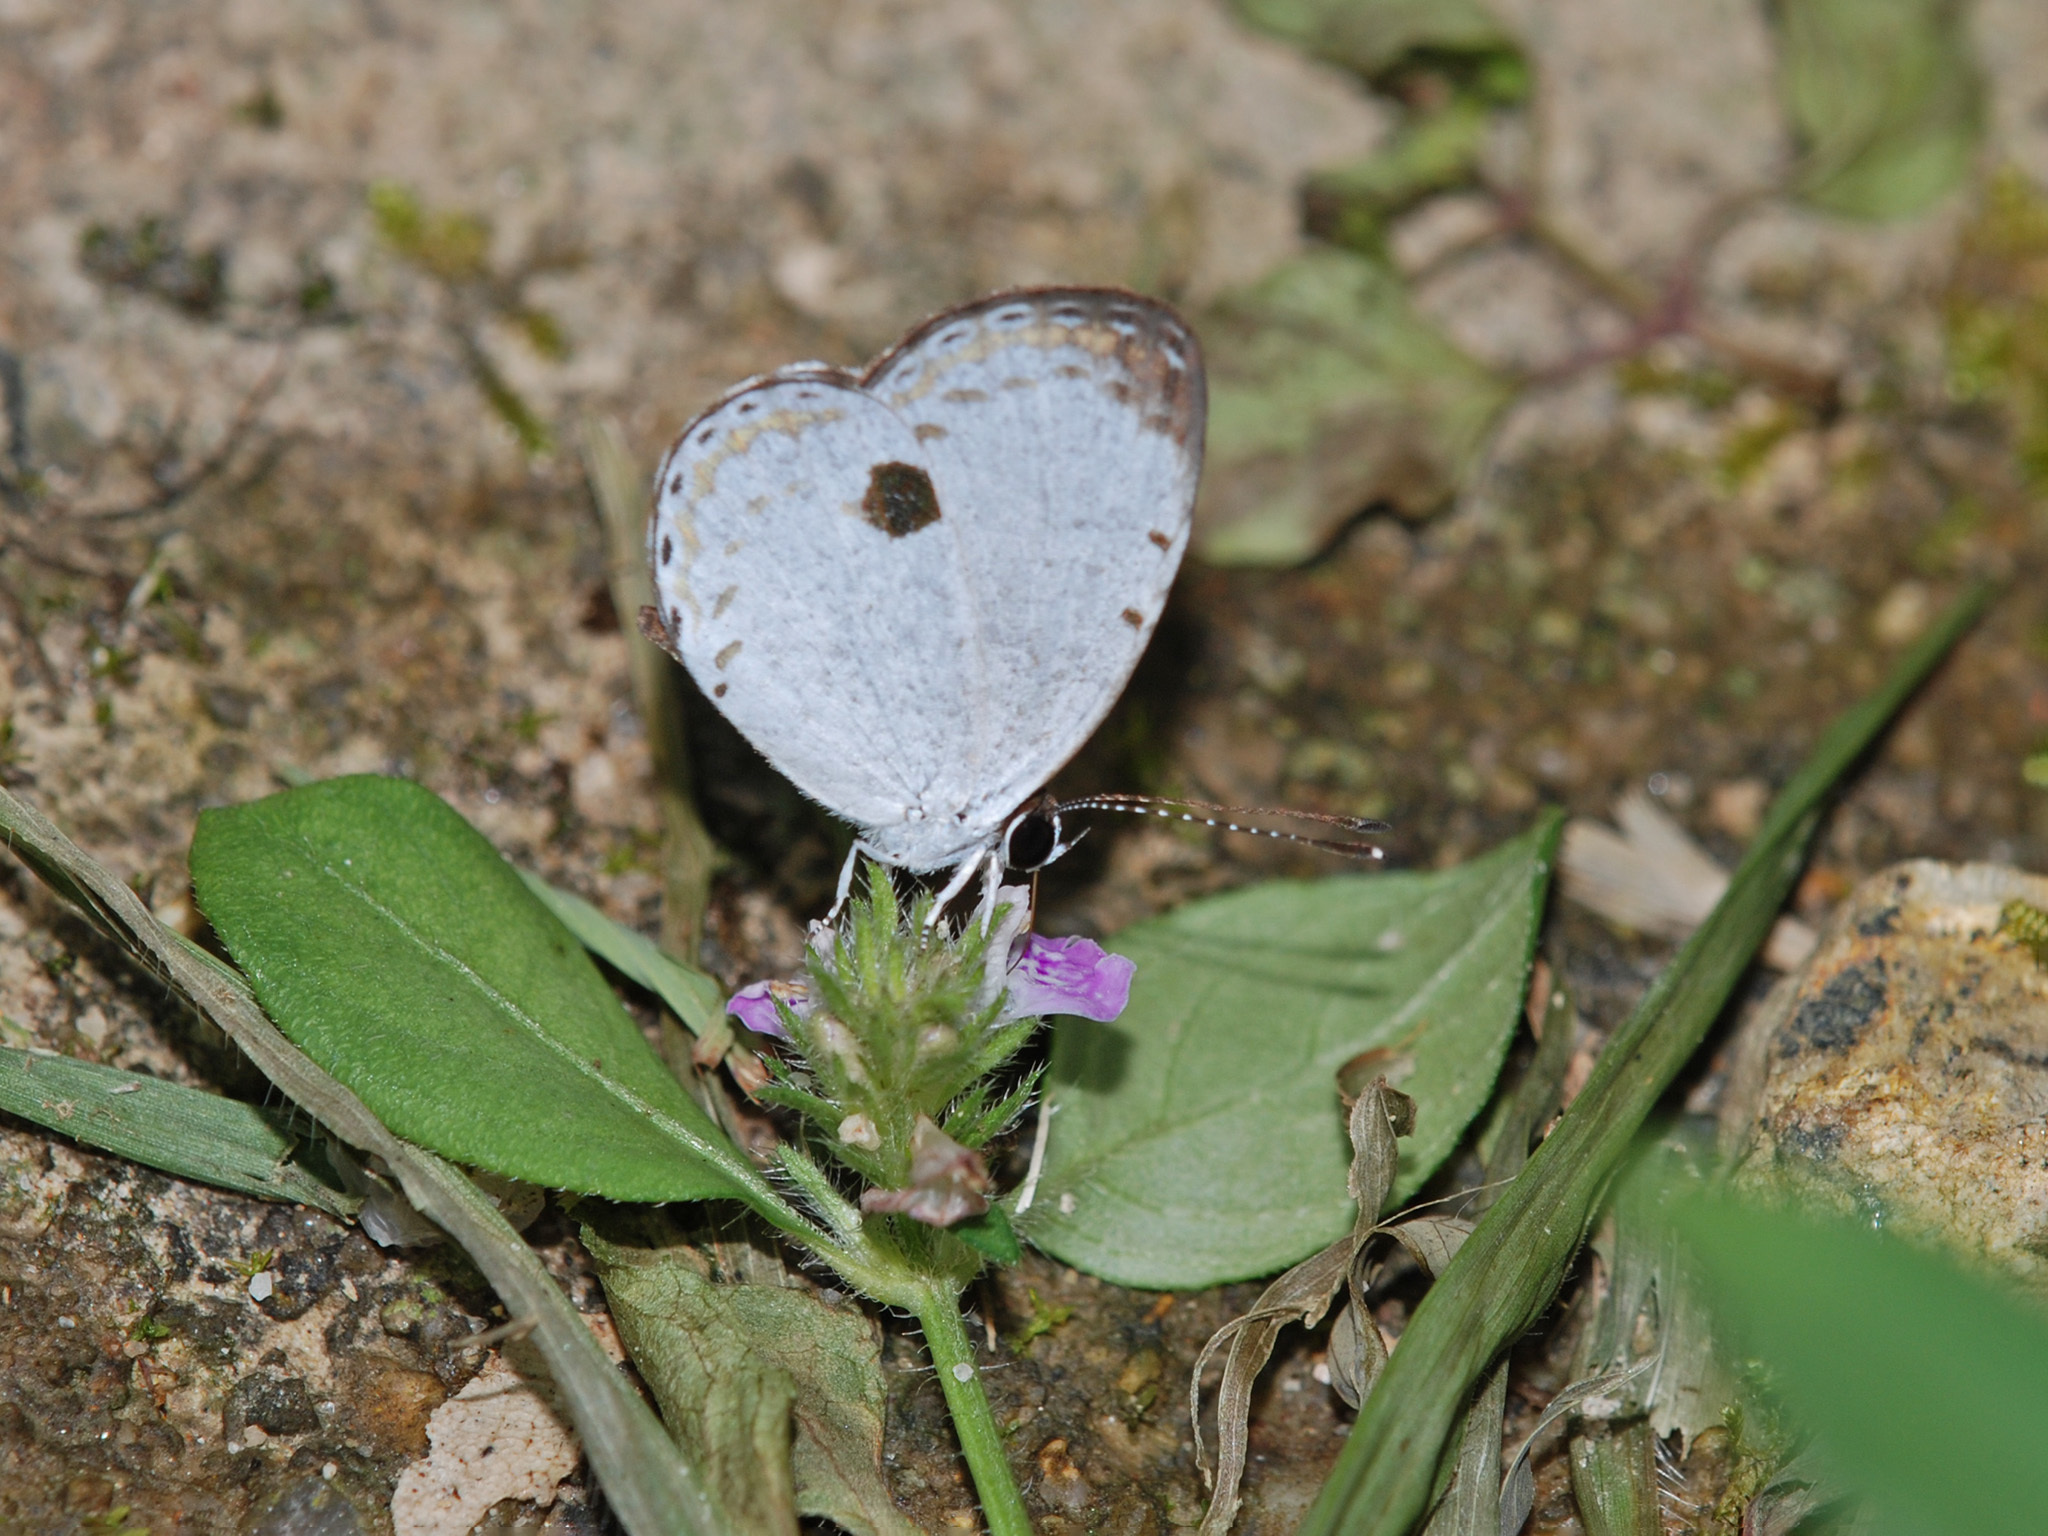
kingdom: Animalia
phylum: Arthropoda
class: Insecta
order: Lepidoptera
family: Lycaenidae
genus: Pithecops
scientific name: Pithecops corvus
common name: Forest quaker
